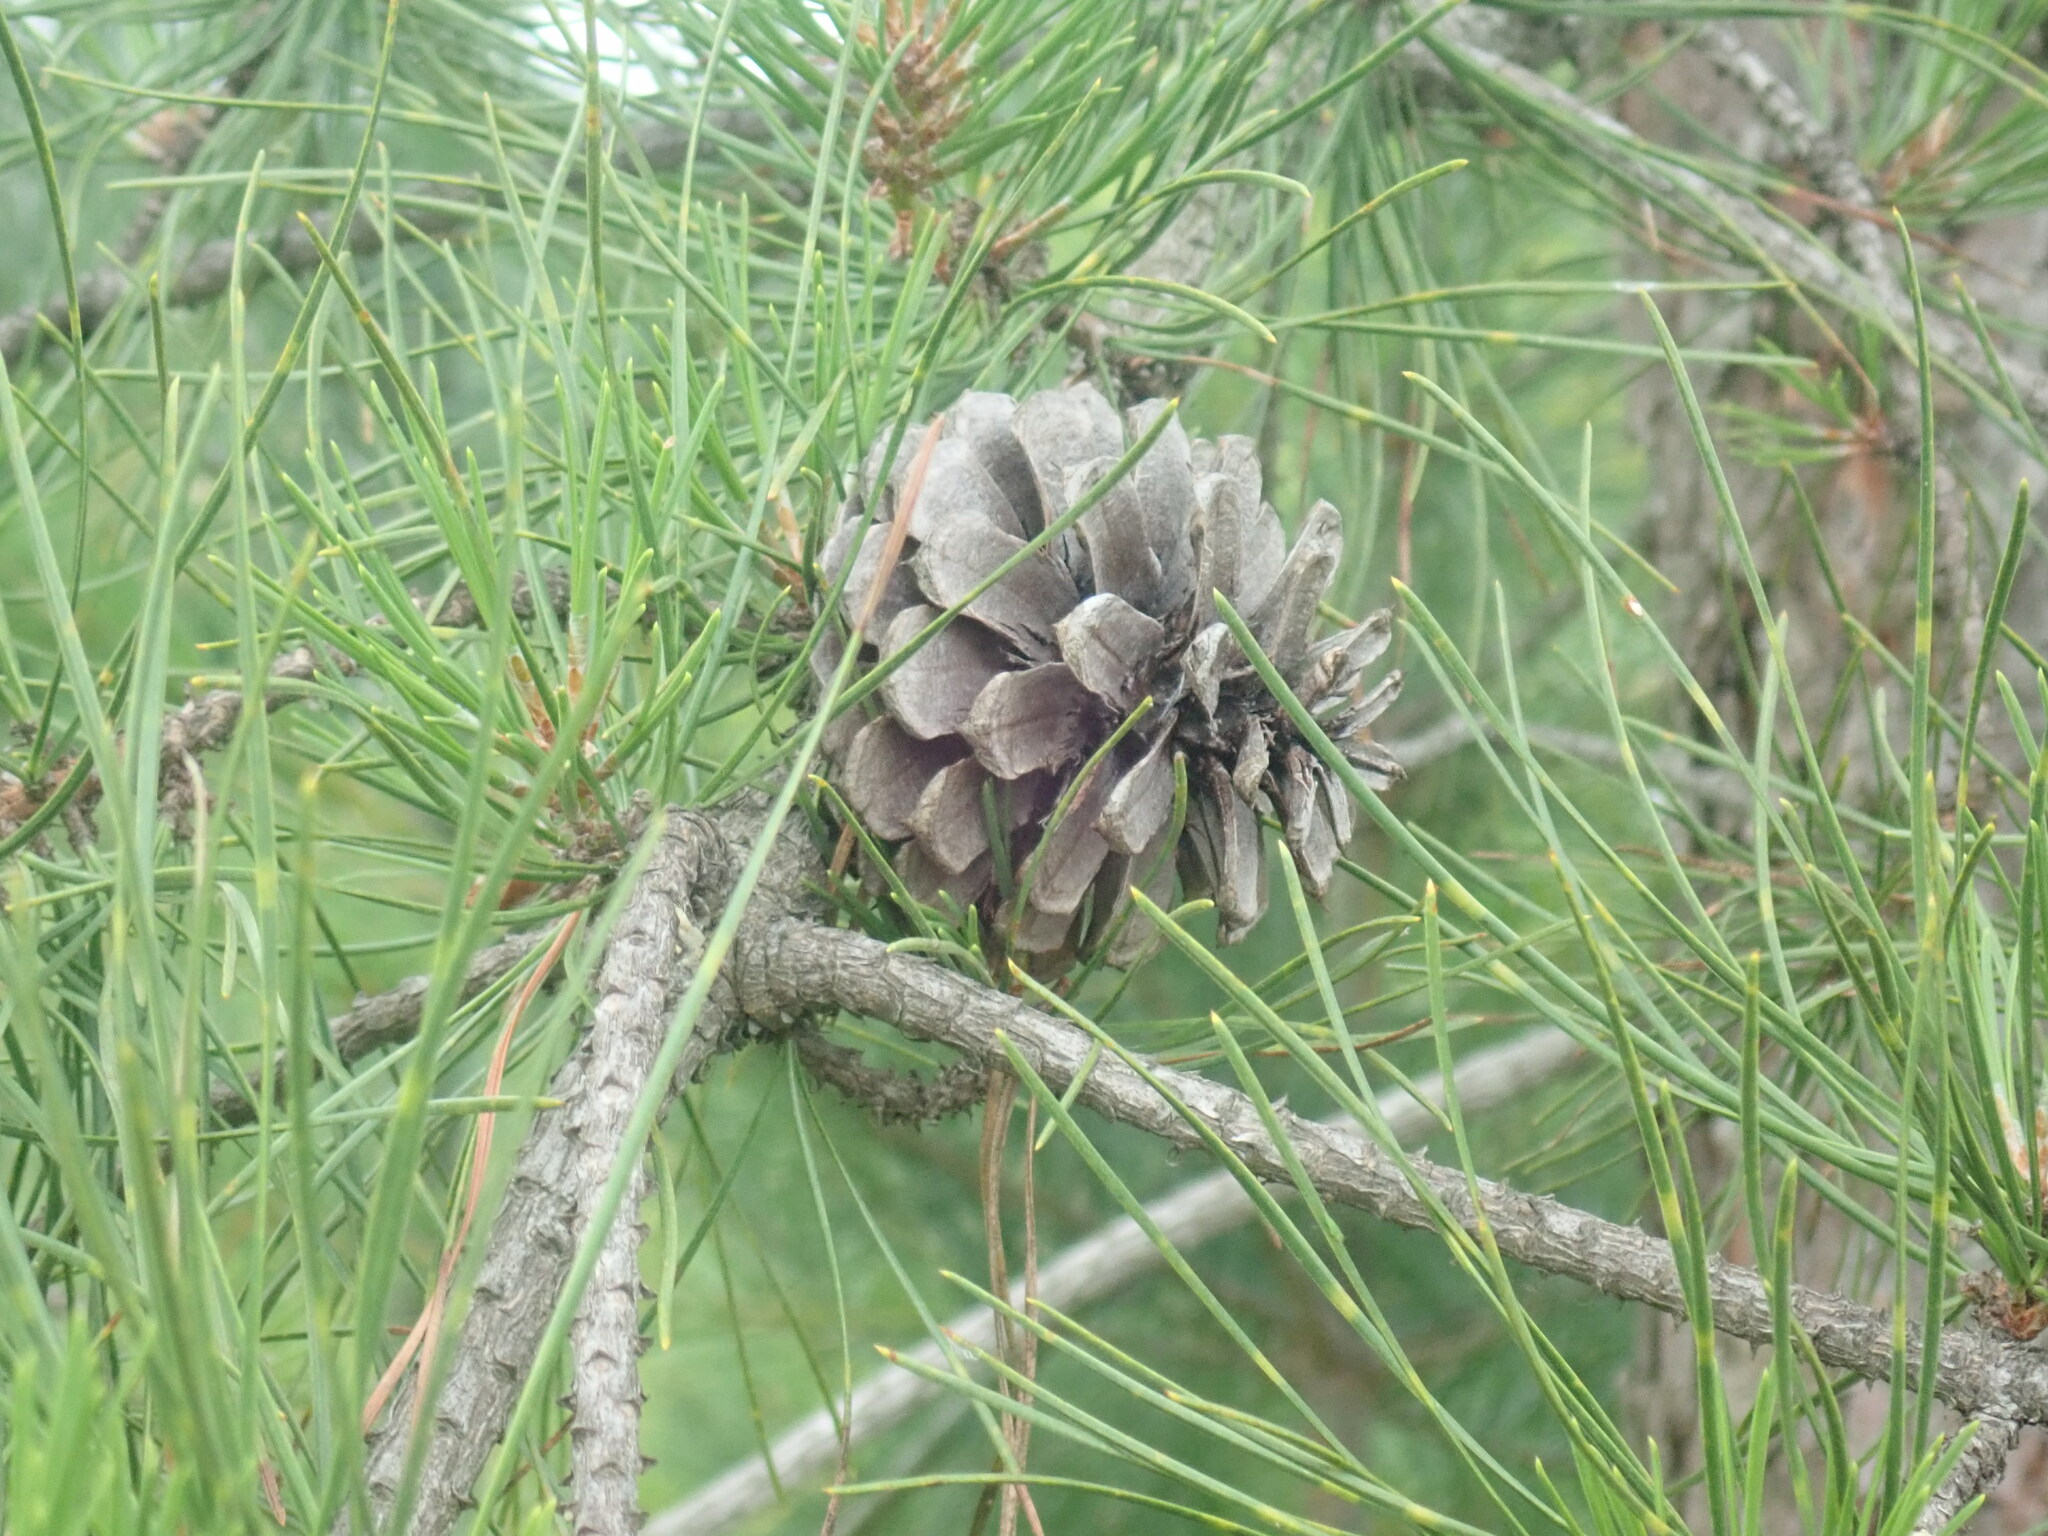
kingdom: Plantae
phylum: Tracheophyta
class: Pinopsida
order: Pinales
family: Pinaceae
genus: Pinus
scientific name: Pinus rigida
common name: Pitch pine
